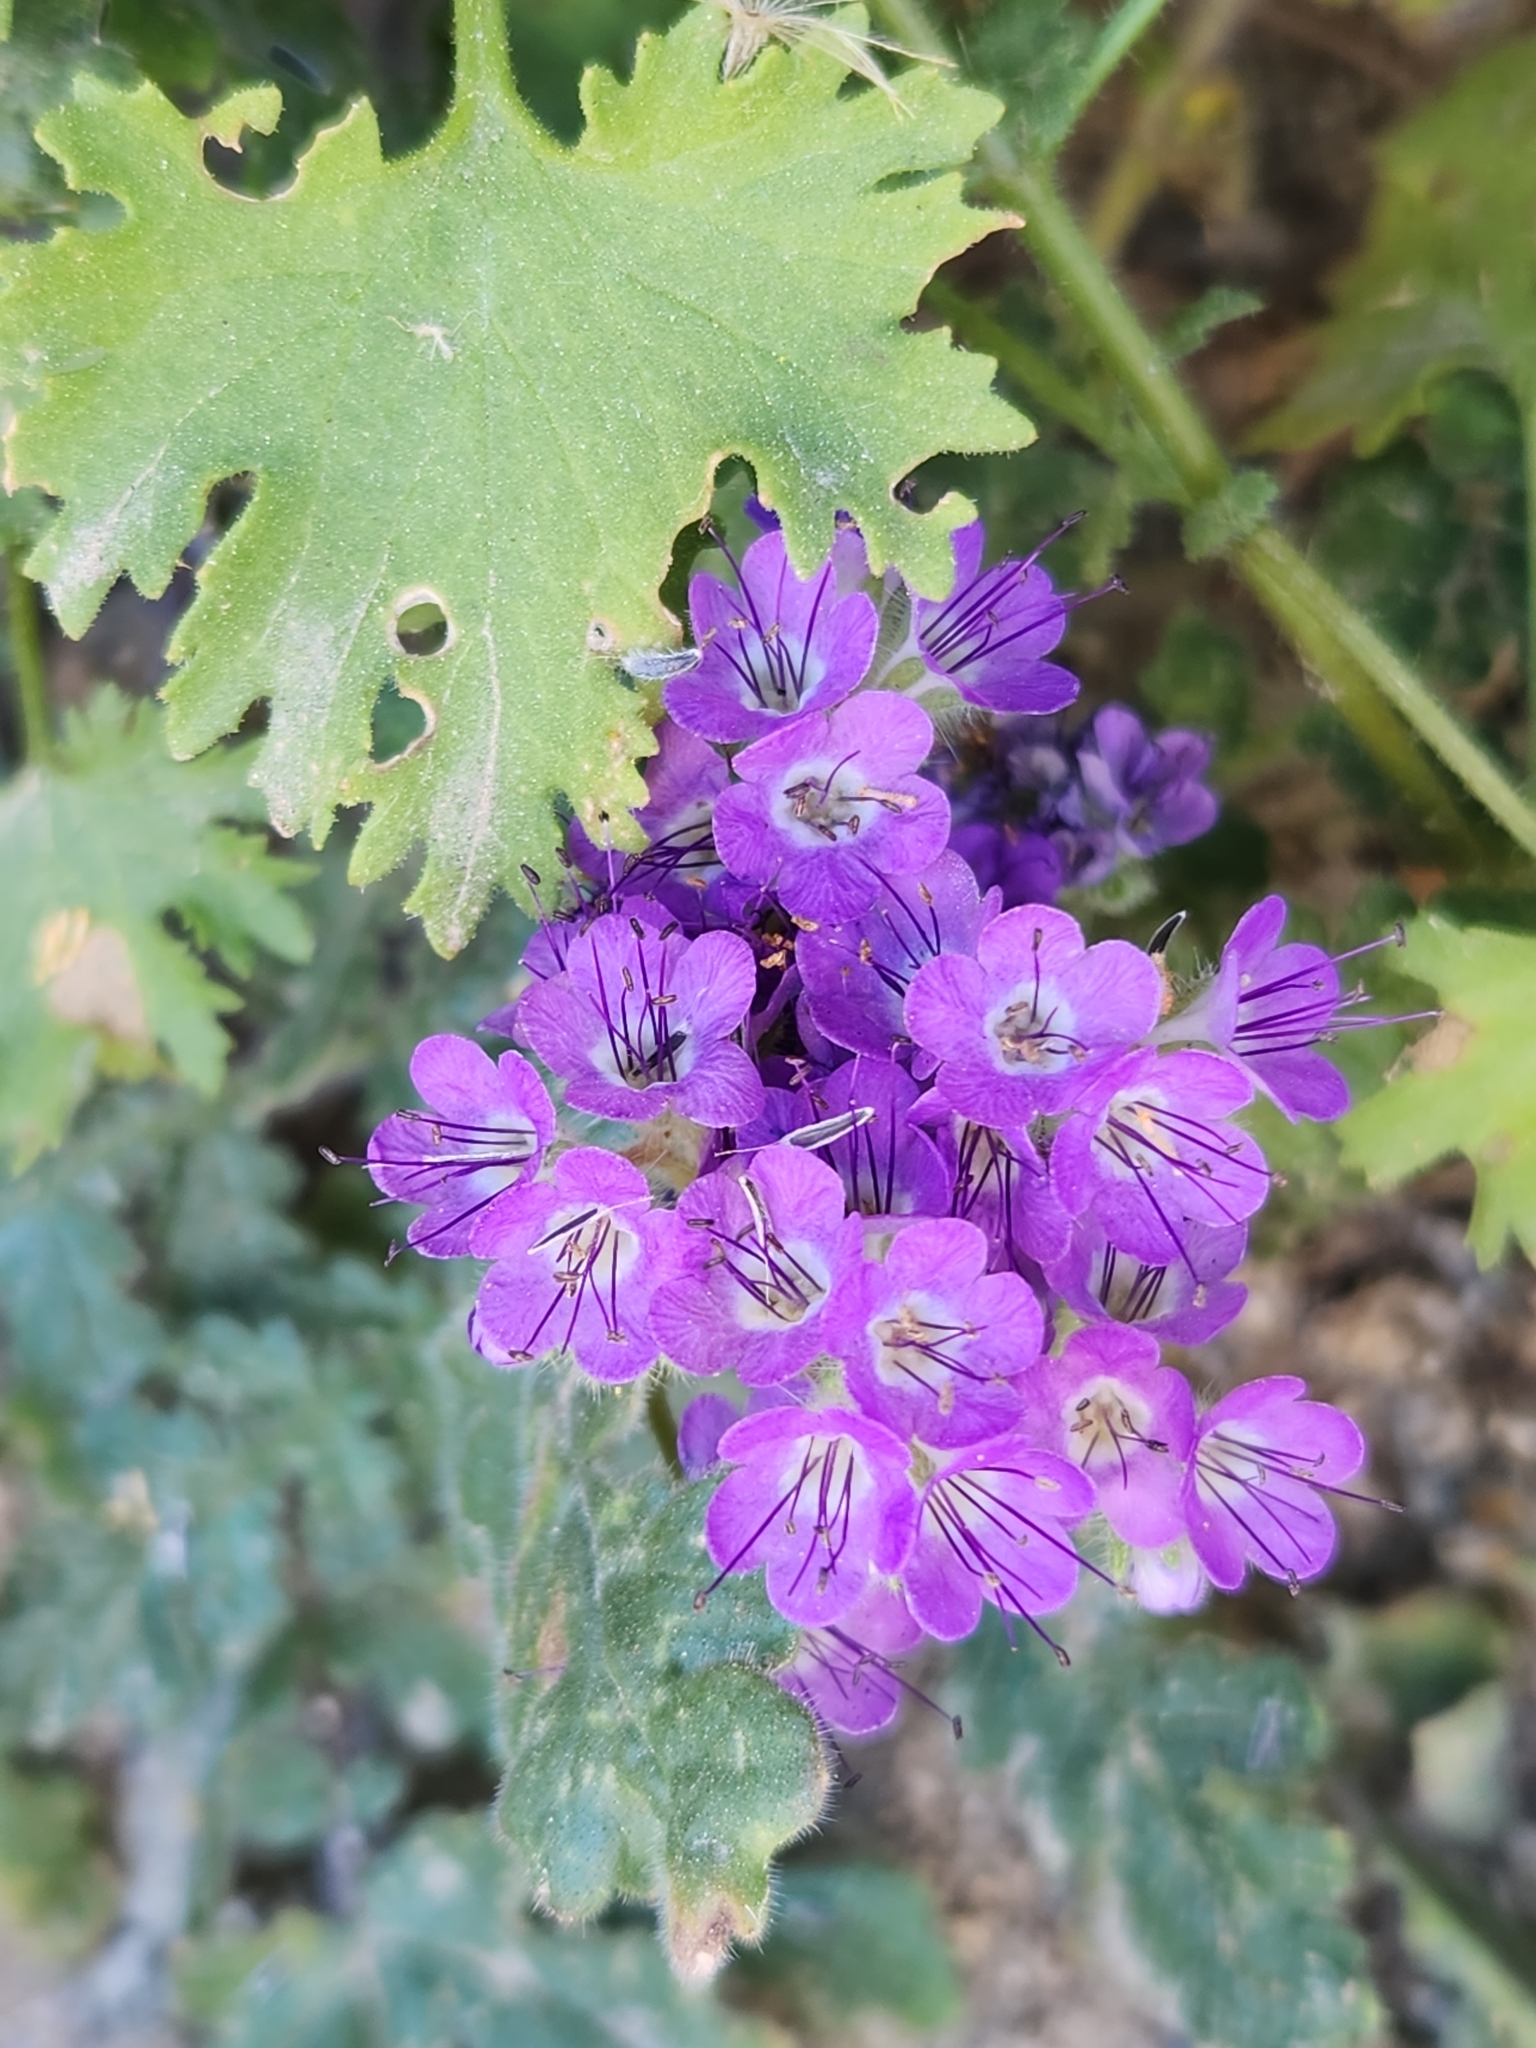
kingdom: Plantae
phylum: Tracheophyta
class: Magnoliopsida
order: Boraginales
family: Hydrophyllaceae
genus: Phacelia
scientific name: Phacelia crenulata
